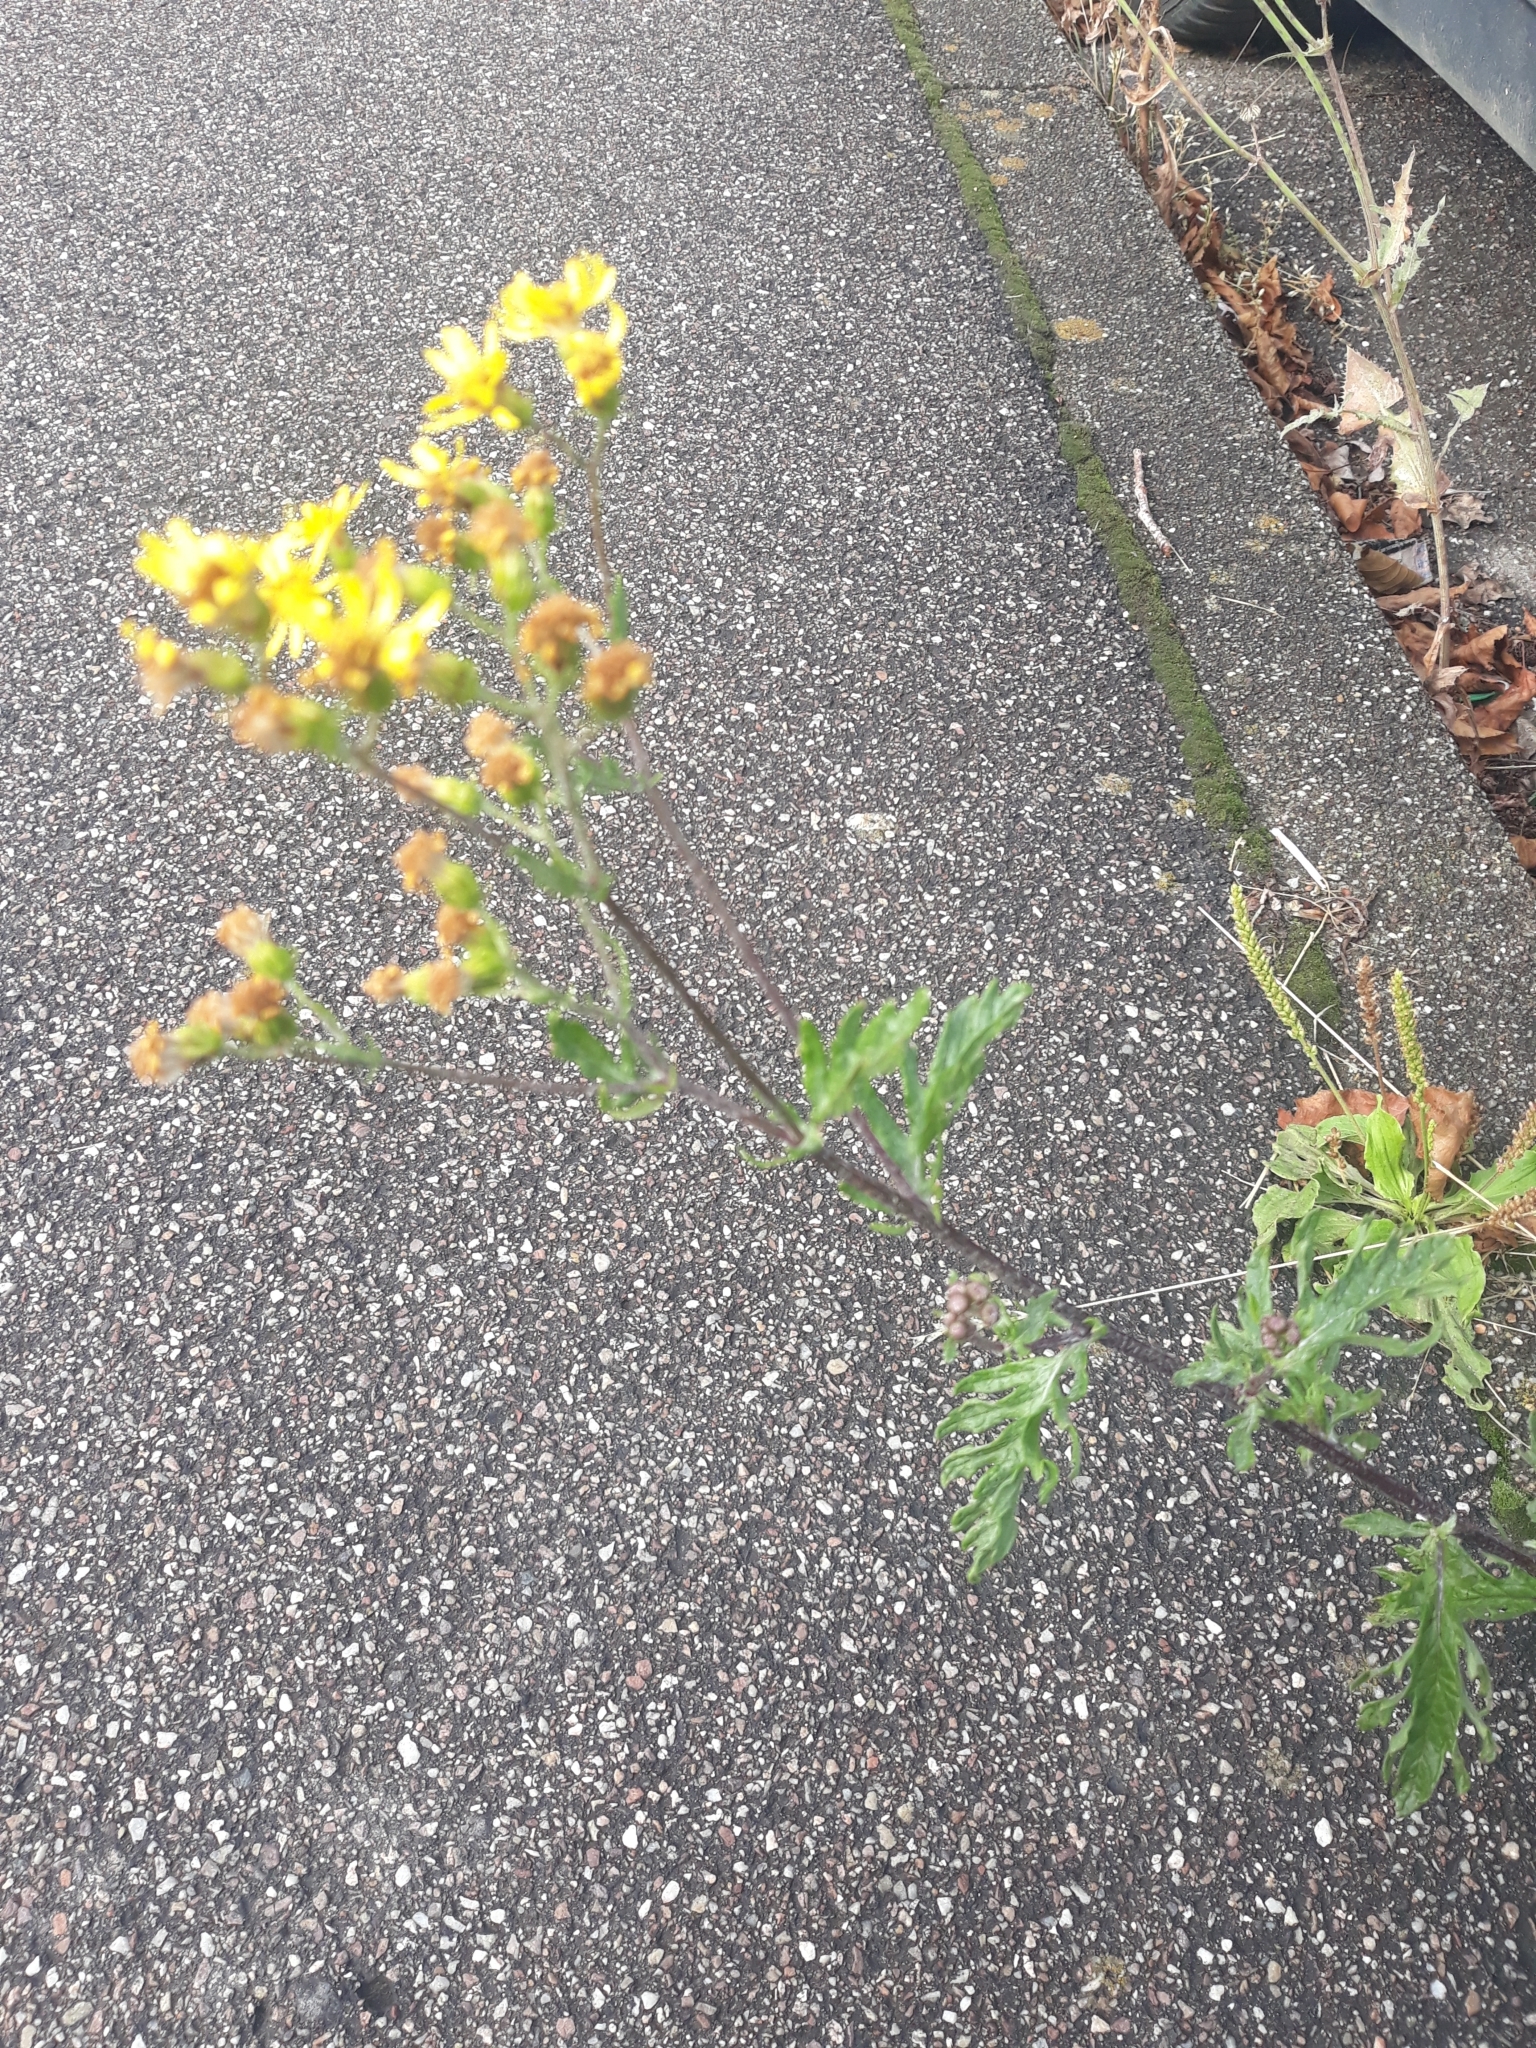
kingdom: Plantae
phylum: Tracheophyta
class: Magnoliopsida
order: Asterales
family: Asteraceae
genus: Jacobaea
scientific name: Jacobaea erucifolia
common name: Hoary ragwort
